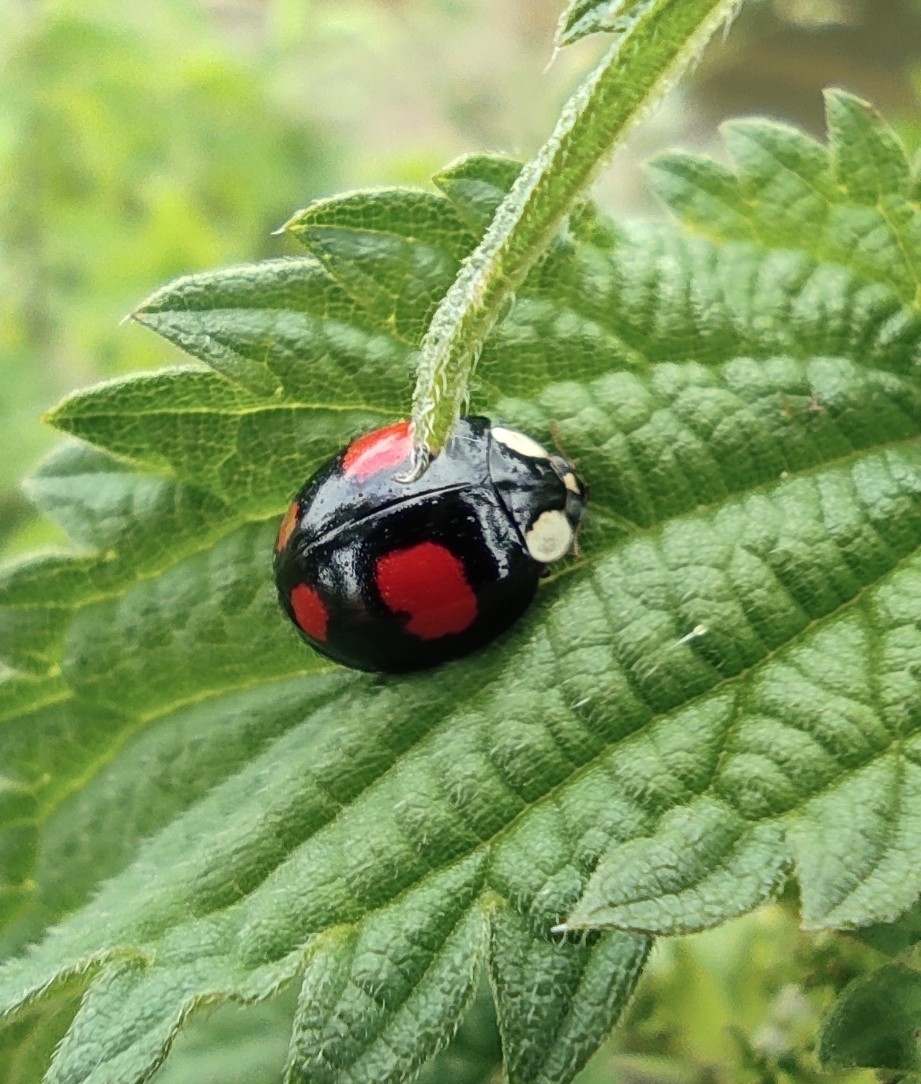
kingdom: Animalia
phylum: Arthropoda
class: Insecta
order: Coleoptera
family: Coccinellidae
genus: Harmonia
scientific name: Harmonia axyridis
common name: Harlequin ladybird
